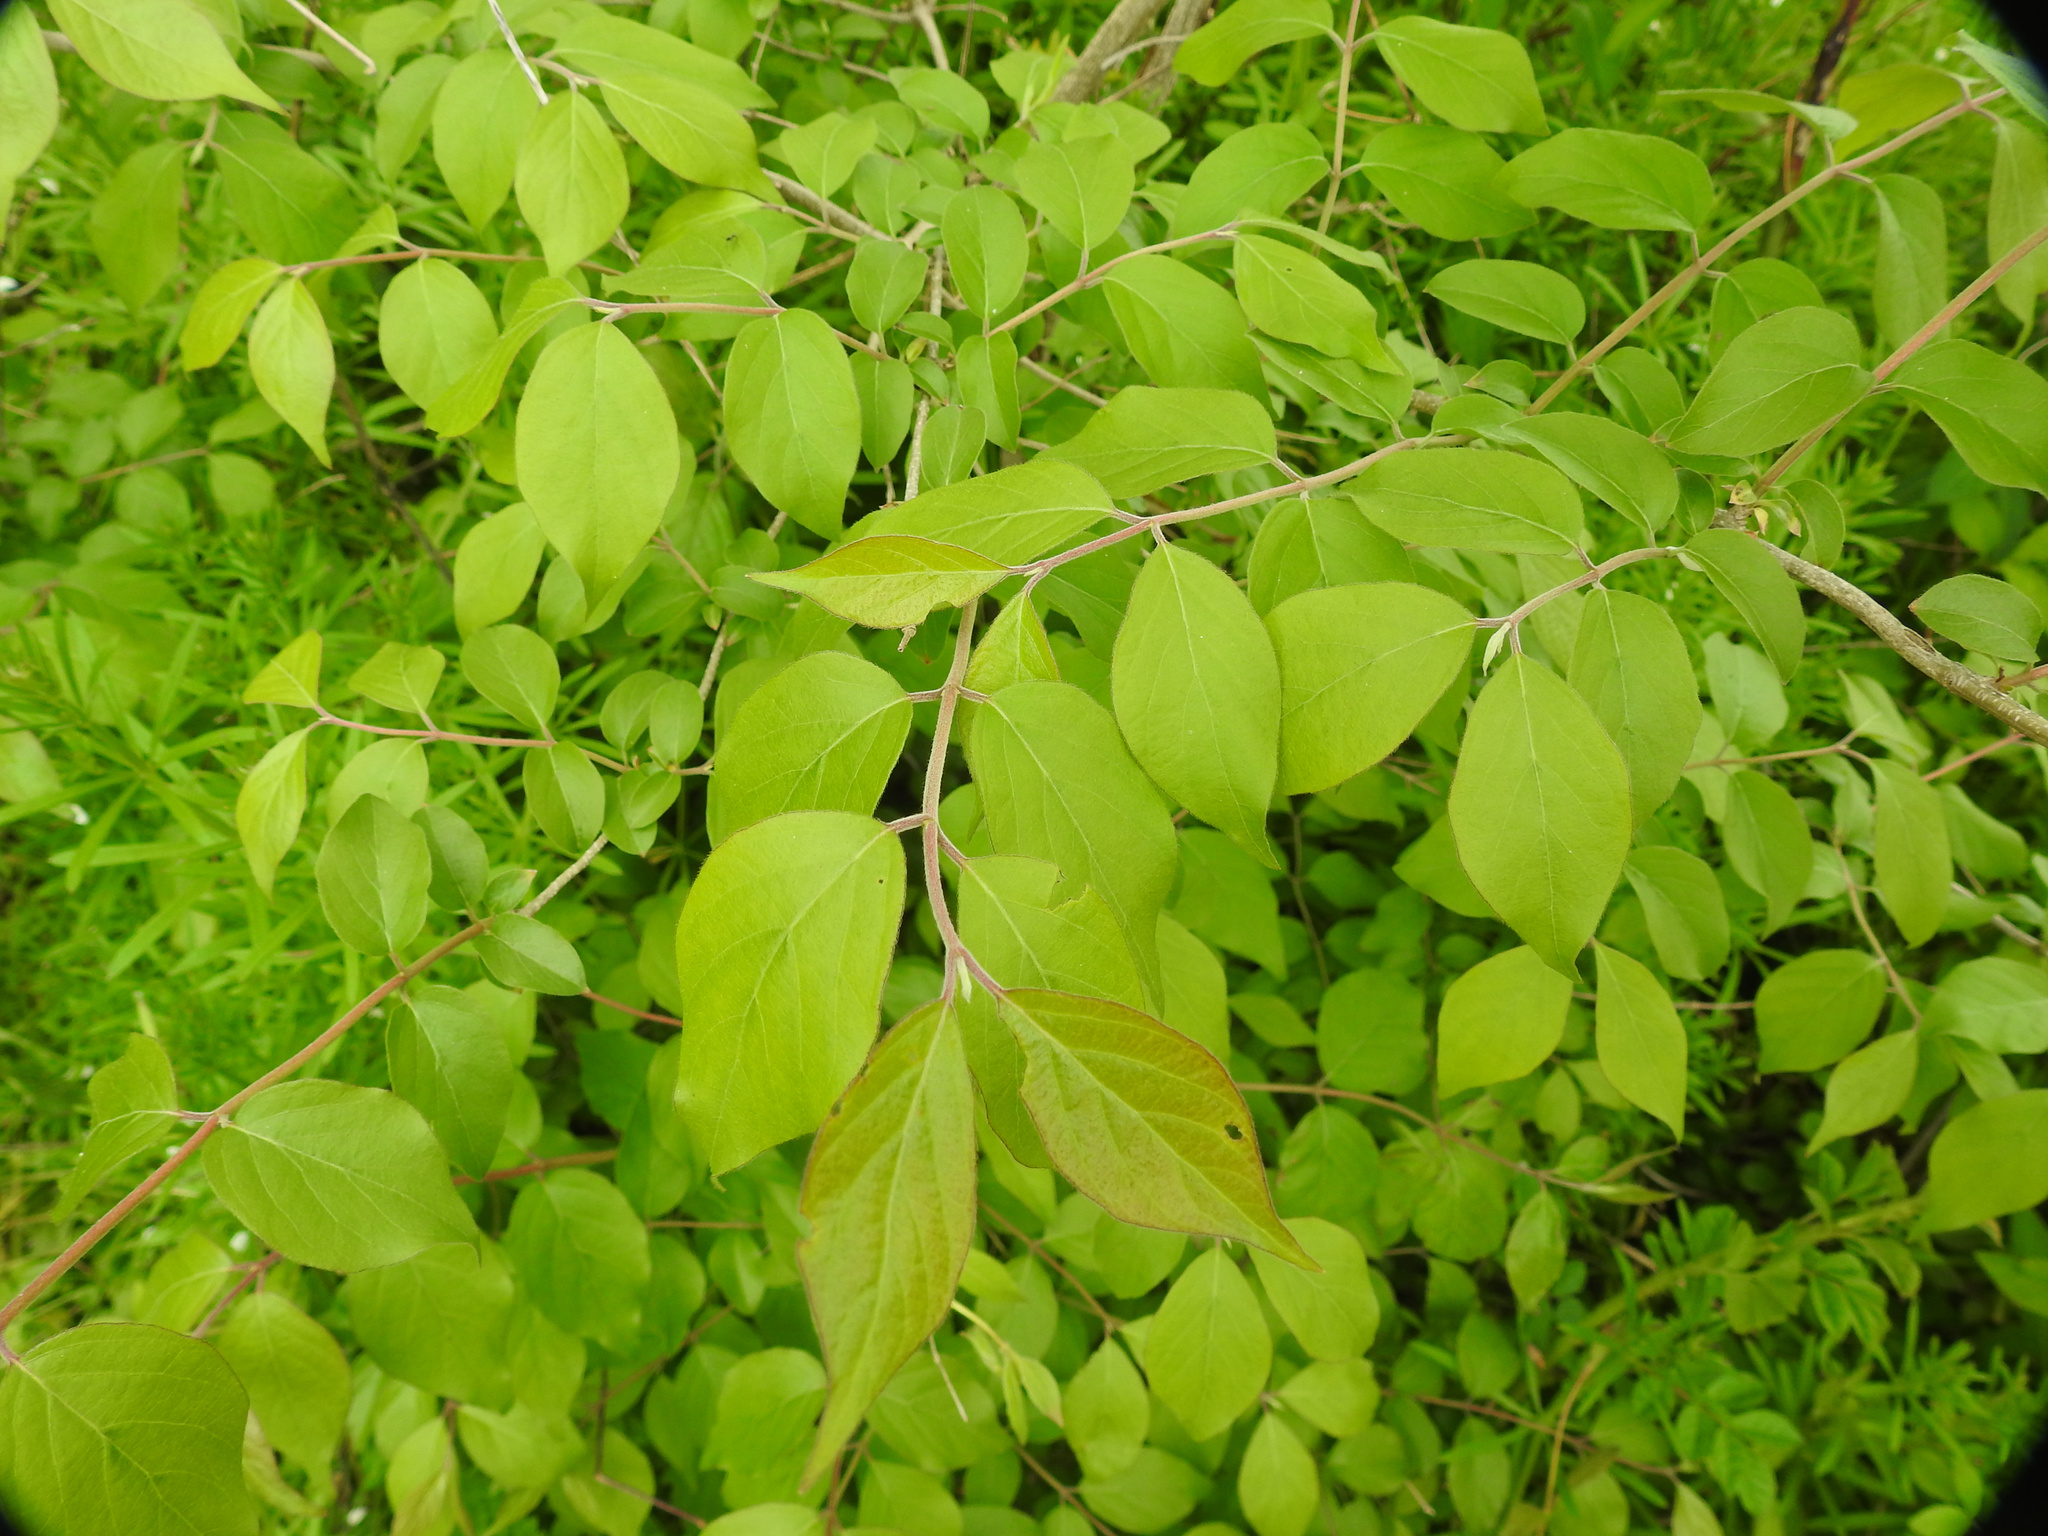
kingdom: Plantae
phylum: Tracheophyta
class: Magnoliopsida
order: Dipsacales
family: Caprifoliaceae
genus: Lonicera
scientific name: Lonicera maackii
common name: Amur honeysuckle
